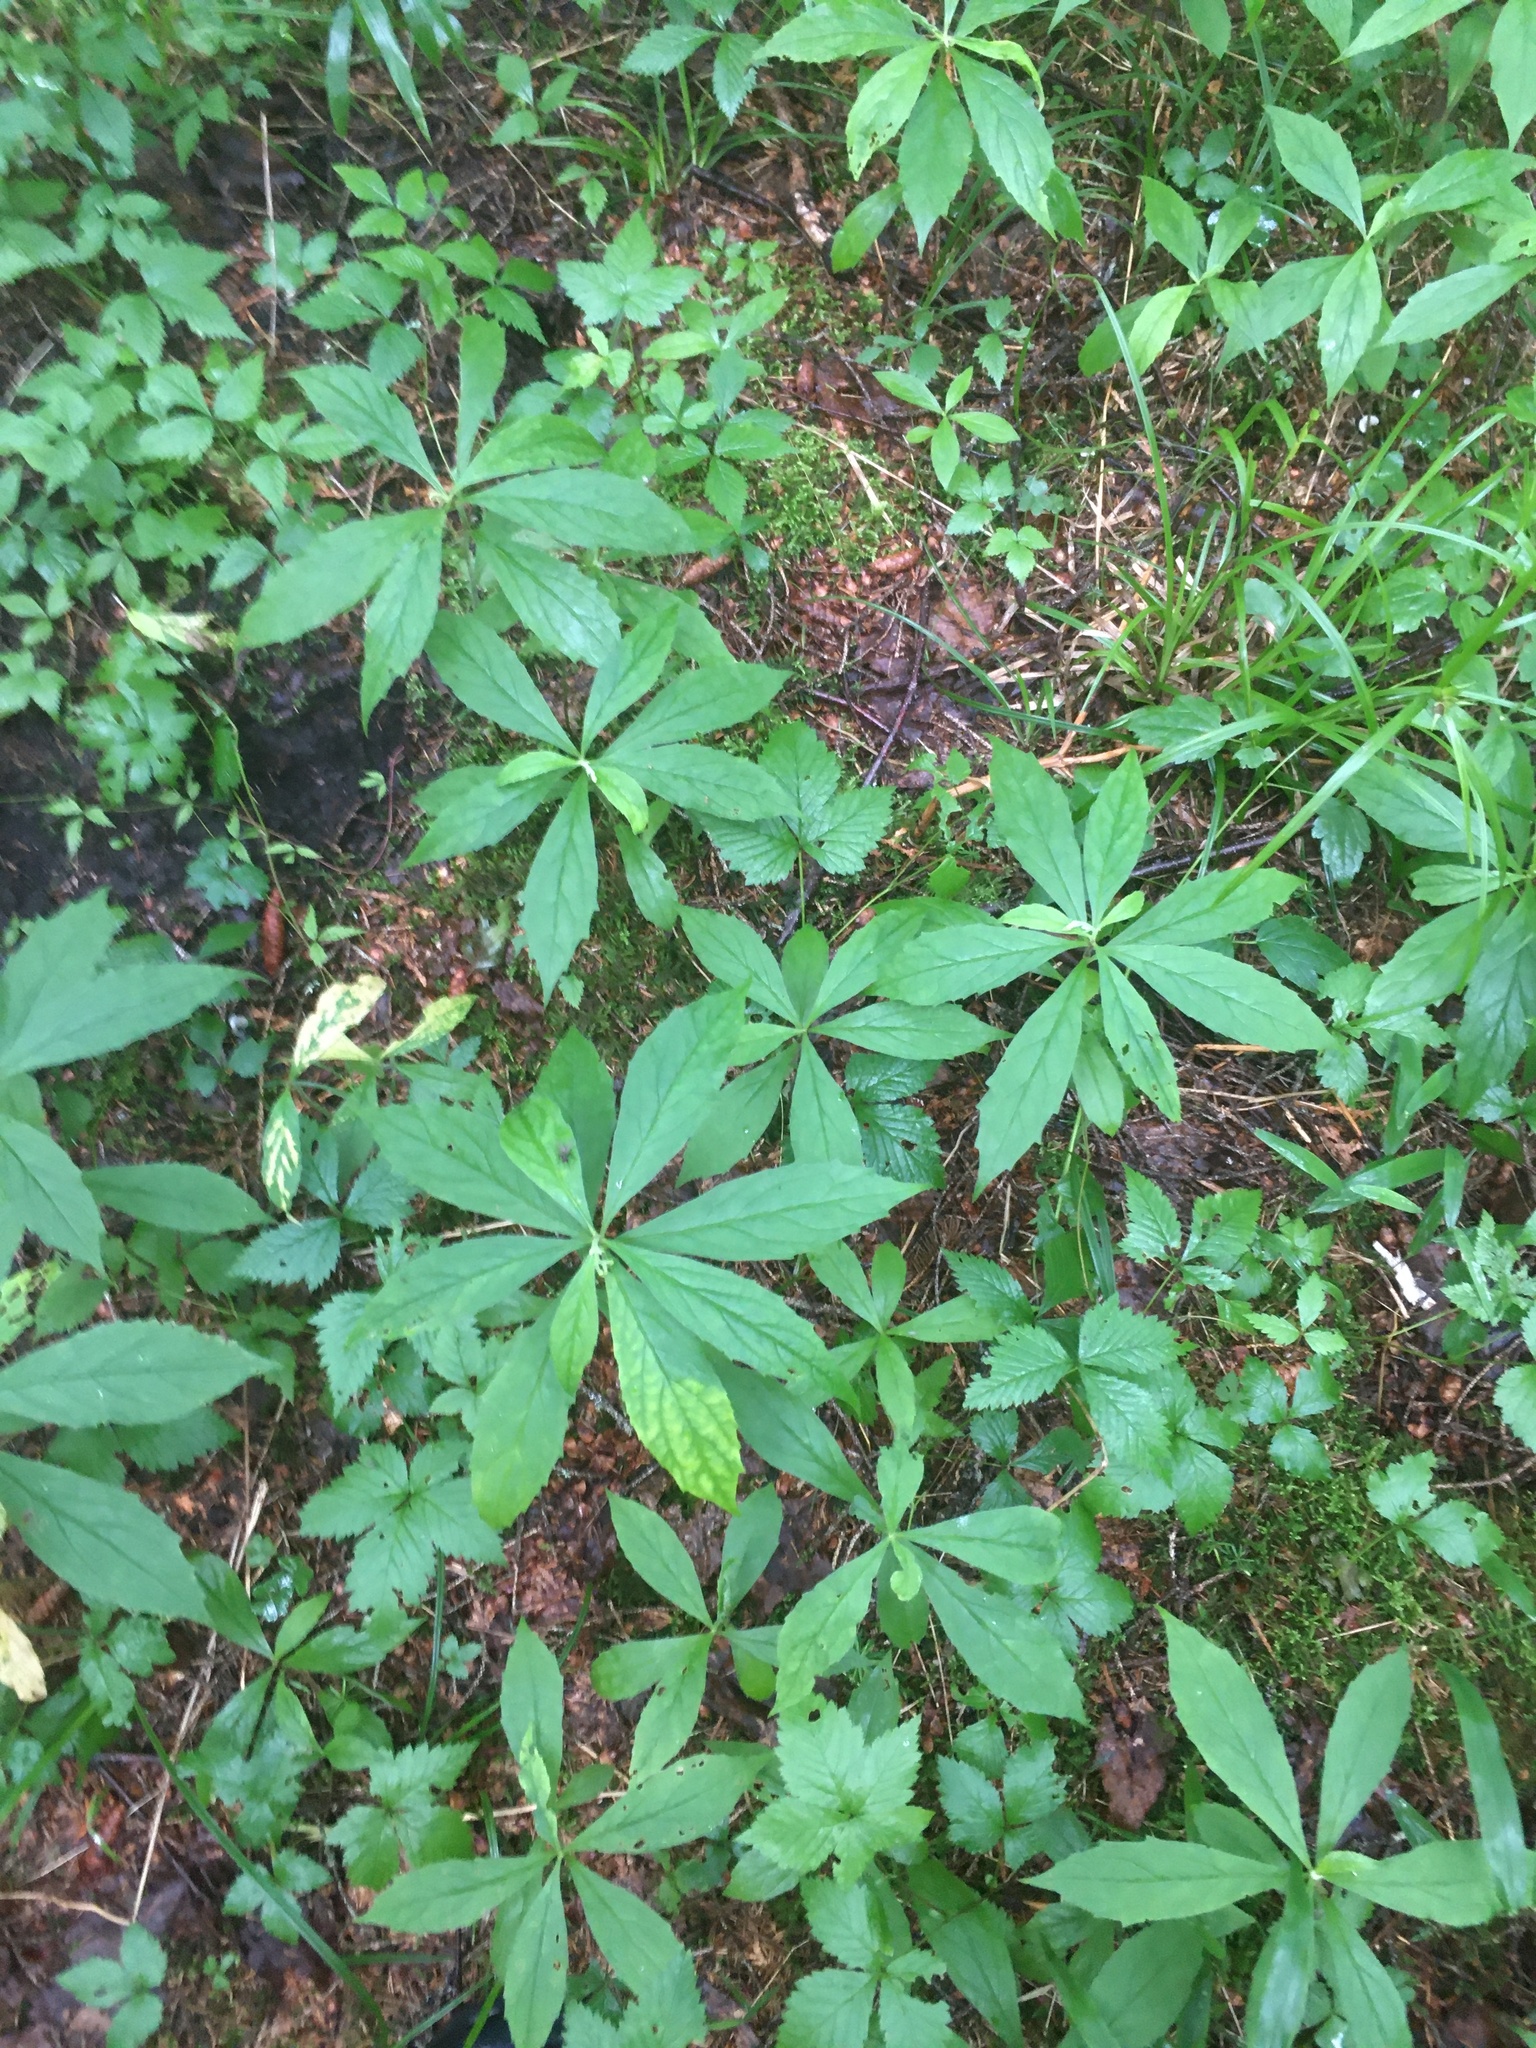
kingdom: Plantae
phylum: Tracheophyta
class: Magnoliopsida
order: Asterales
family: Asteraceae
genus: Oclemena
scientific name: Oclemena acuminata
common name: Mountain aster
